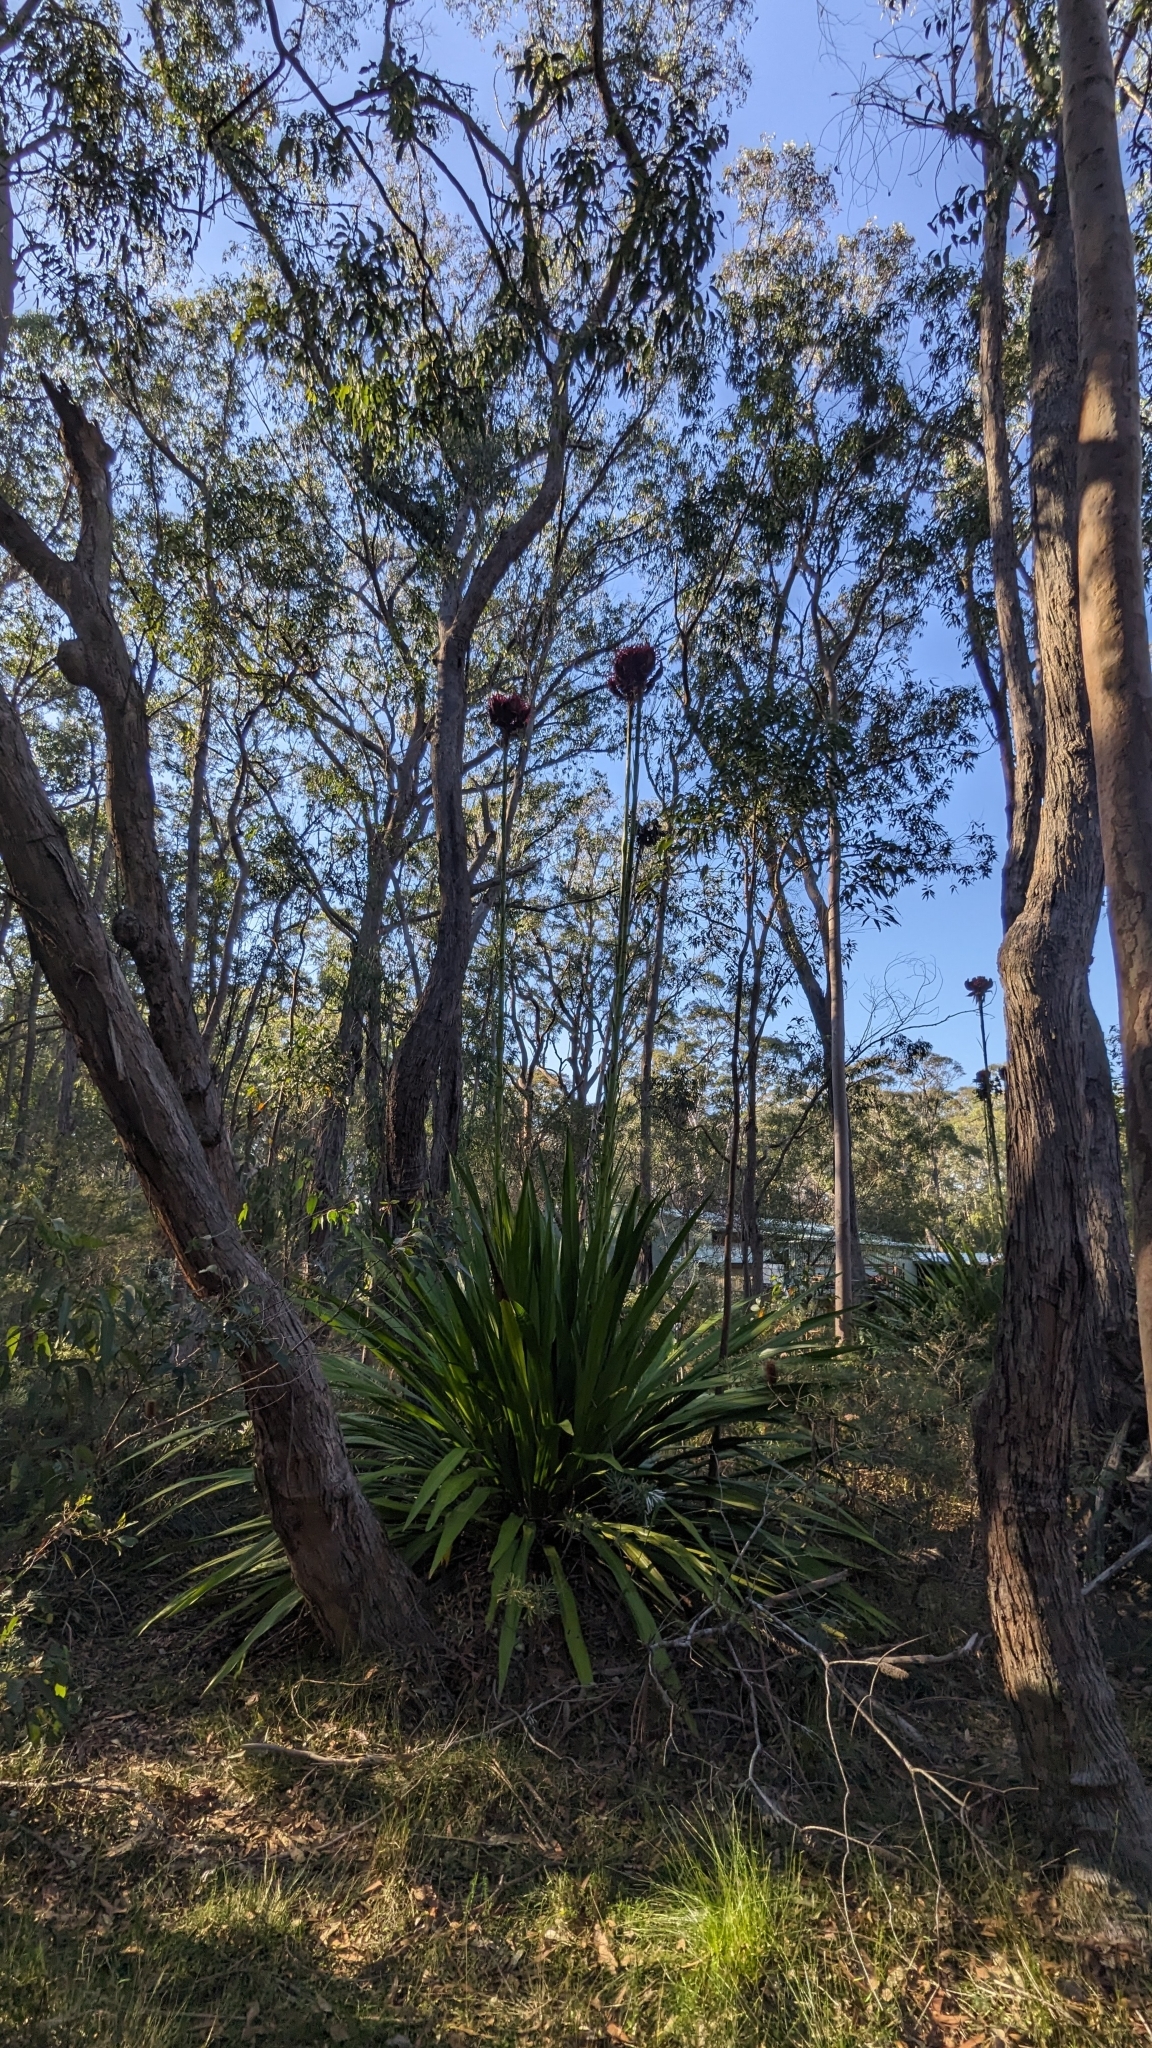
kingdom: Plantae
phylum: Tracheophyta
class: Liliopsida
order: Asparagales
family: Doryanthaceae
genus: Doryanthes
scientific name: Doryanthes excelsa
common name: Giant-lily
